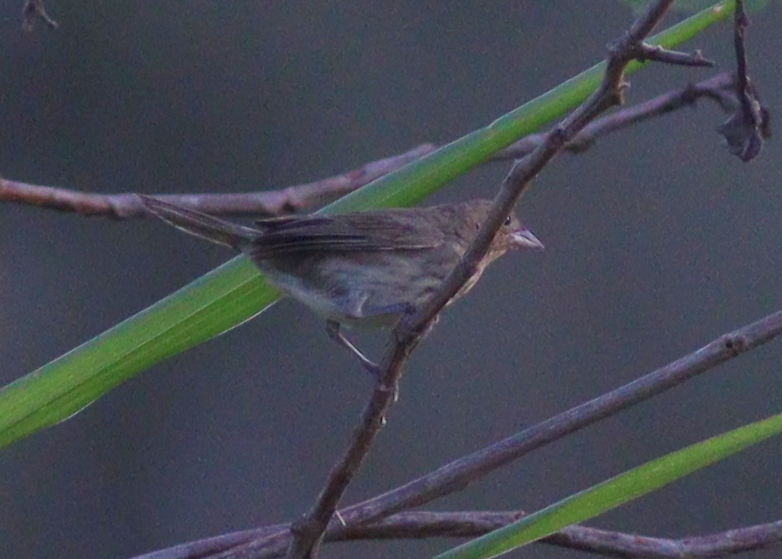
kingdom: Animalia
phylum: Chordata
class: Aves
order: Passeriformes
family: Thraupidae
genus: Volatinia
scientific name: Volatinia jacarina
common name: Blue-black grassquit
